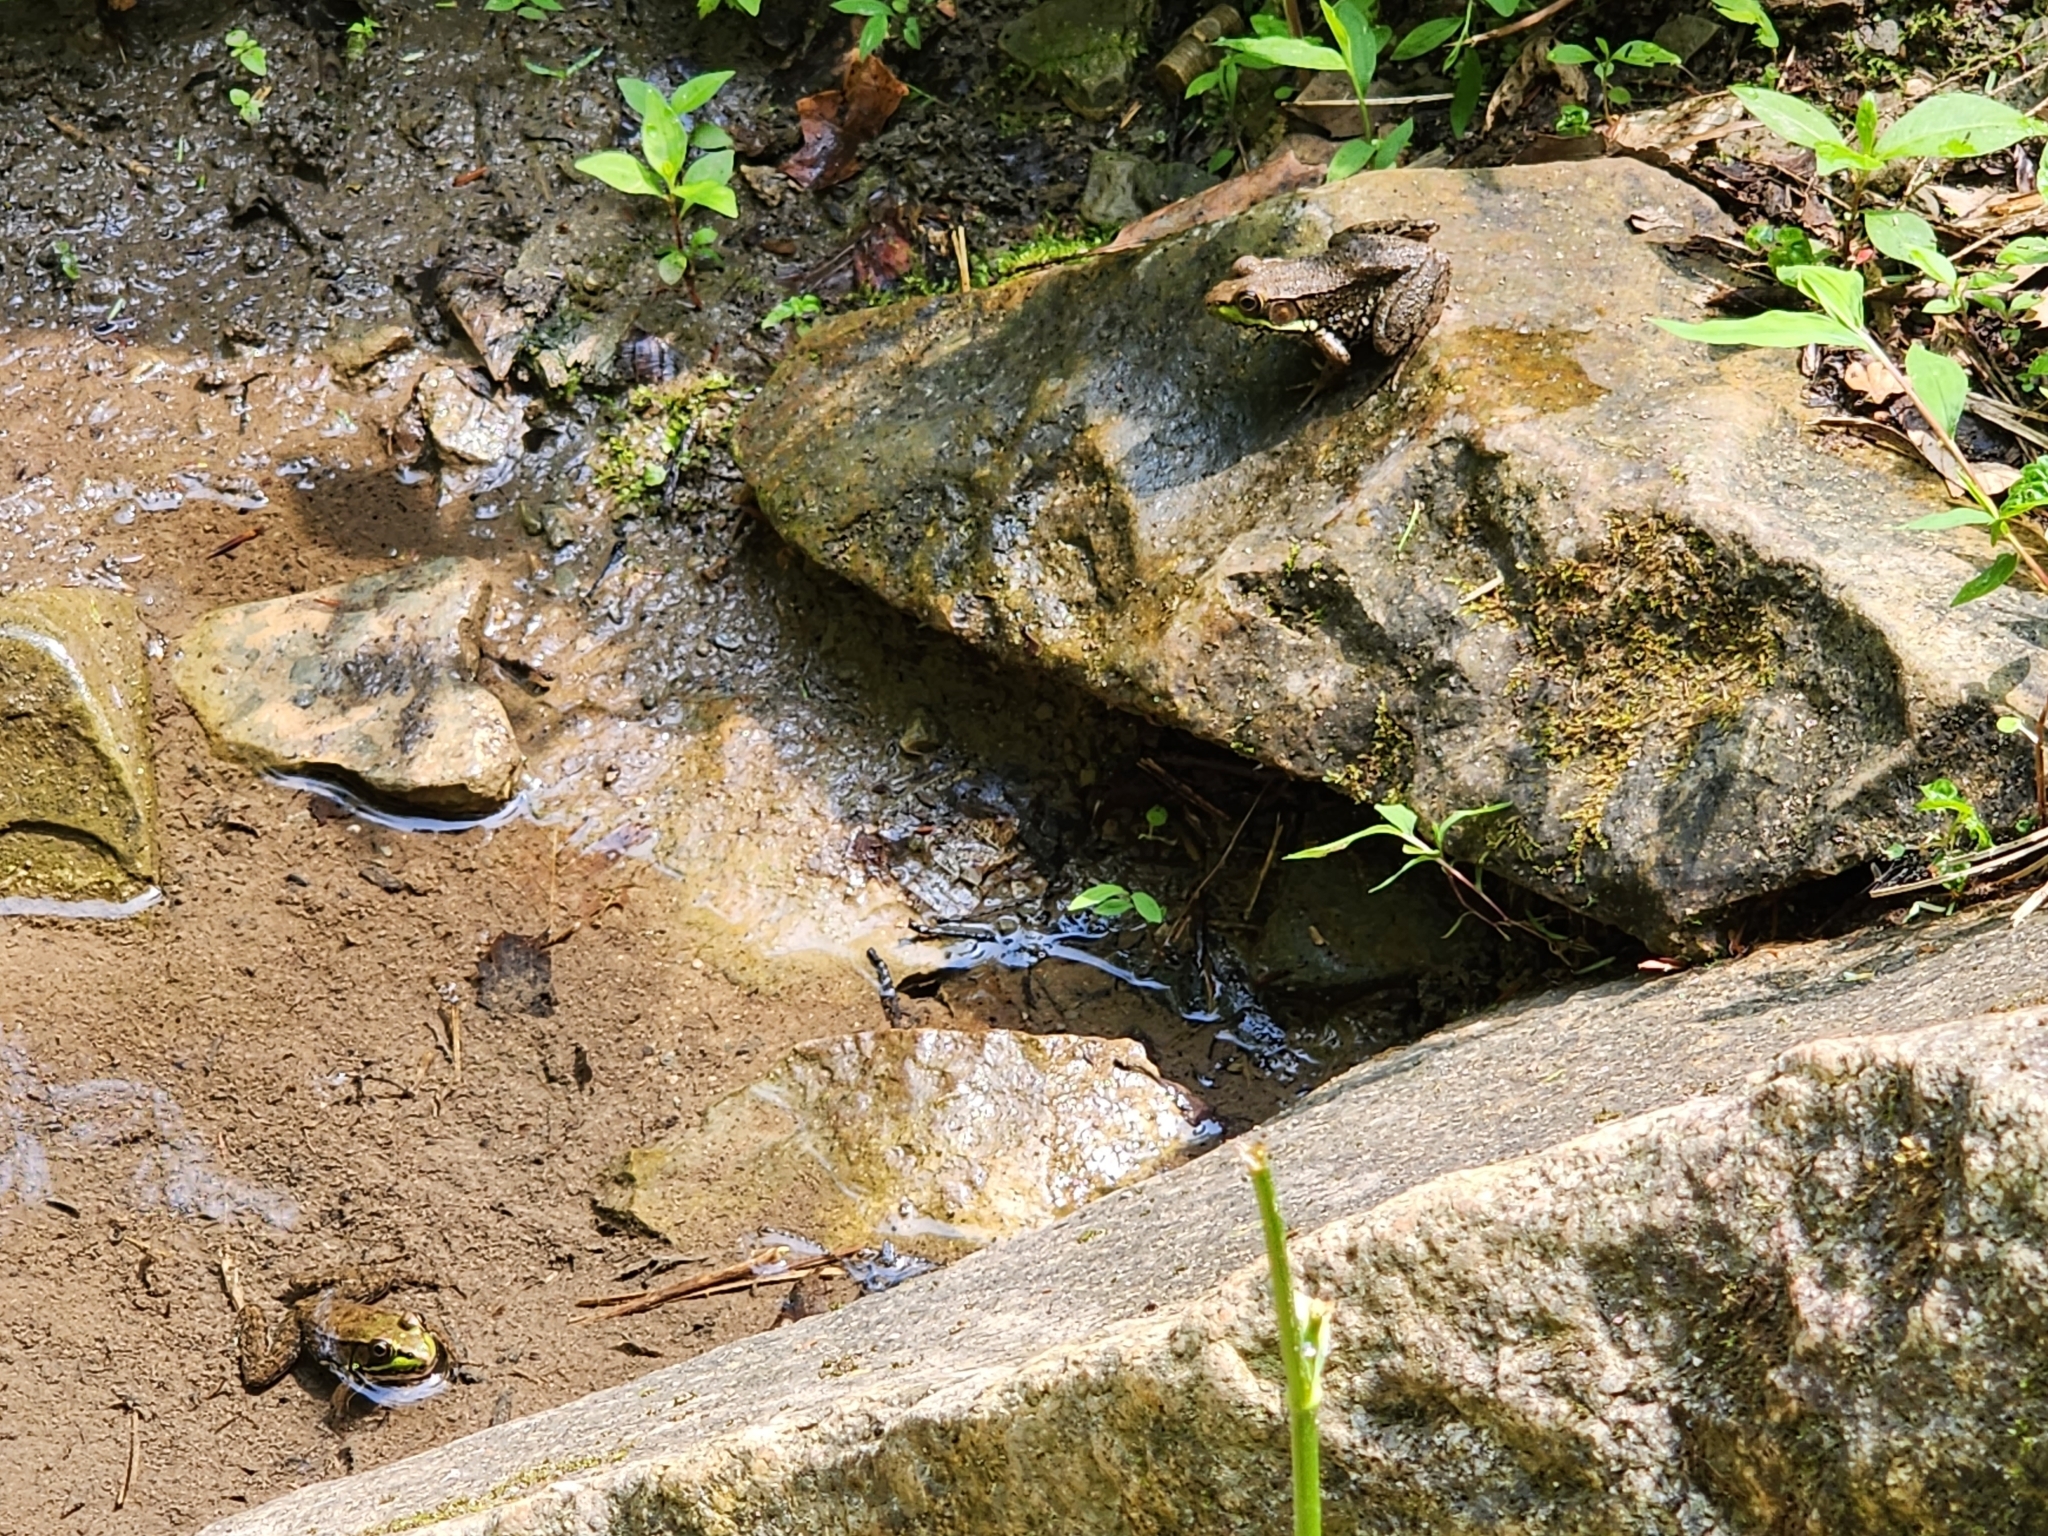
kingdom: Animalia
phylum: Chordata
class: Amphibia
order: Anura
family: Ranidae
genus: Lithobates
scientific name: Lithobates clamitans
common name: Green frog
